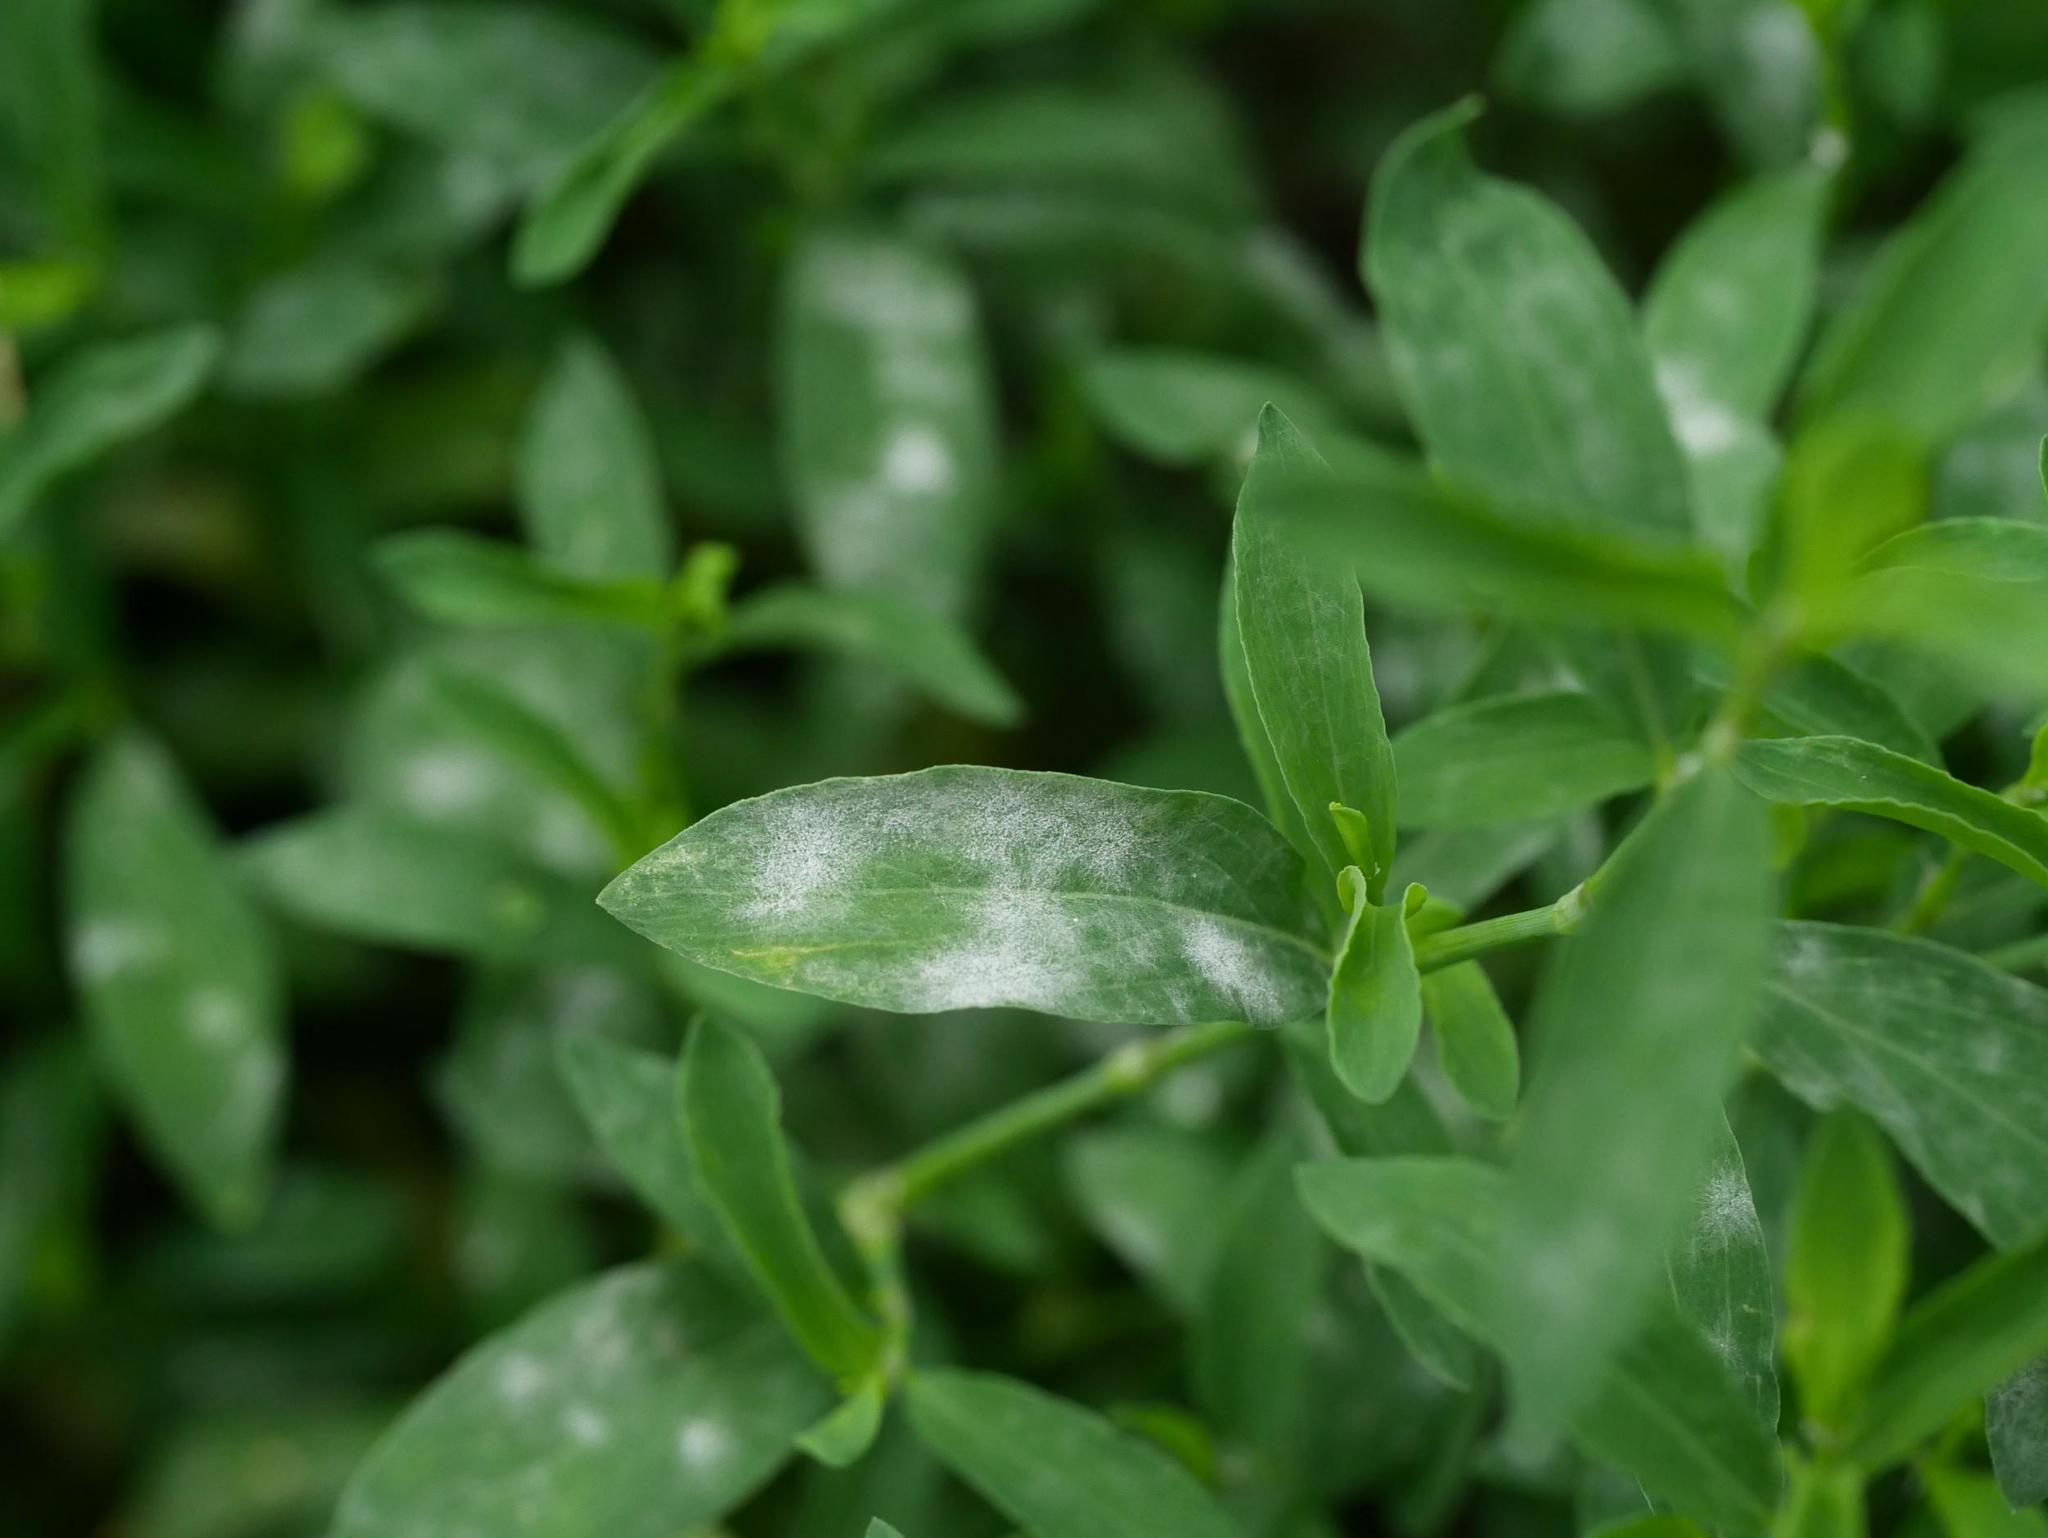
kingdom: Fungi
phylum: Ascomycota
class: Leotiomycetes
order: Helotiales
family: Erysiphaceae
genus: Erysiphe
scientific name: Erysiphe polygoni
